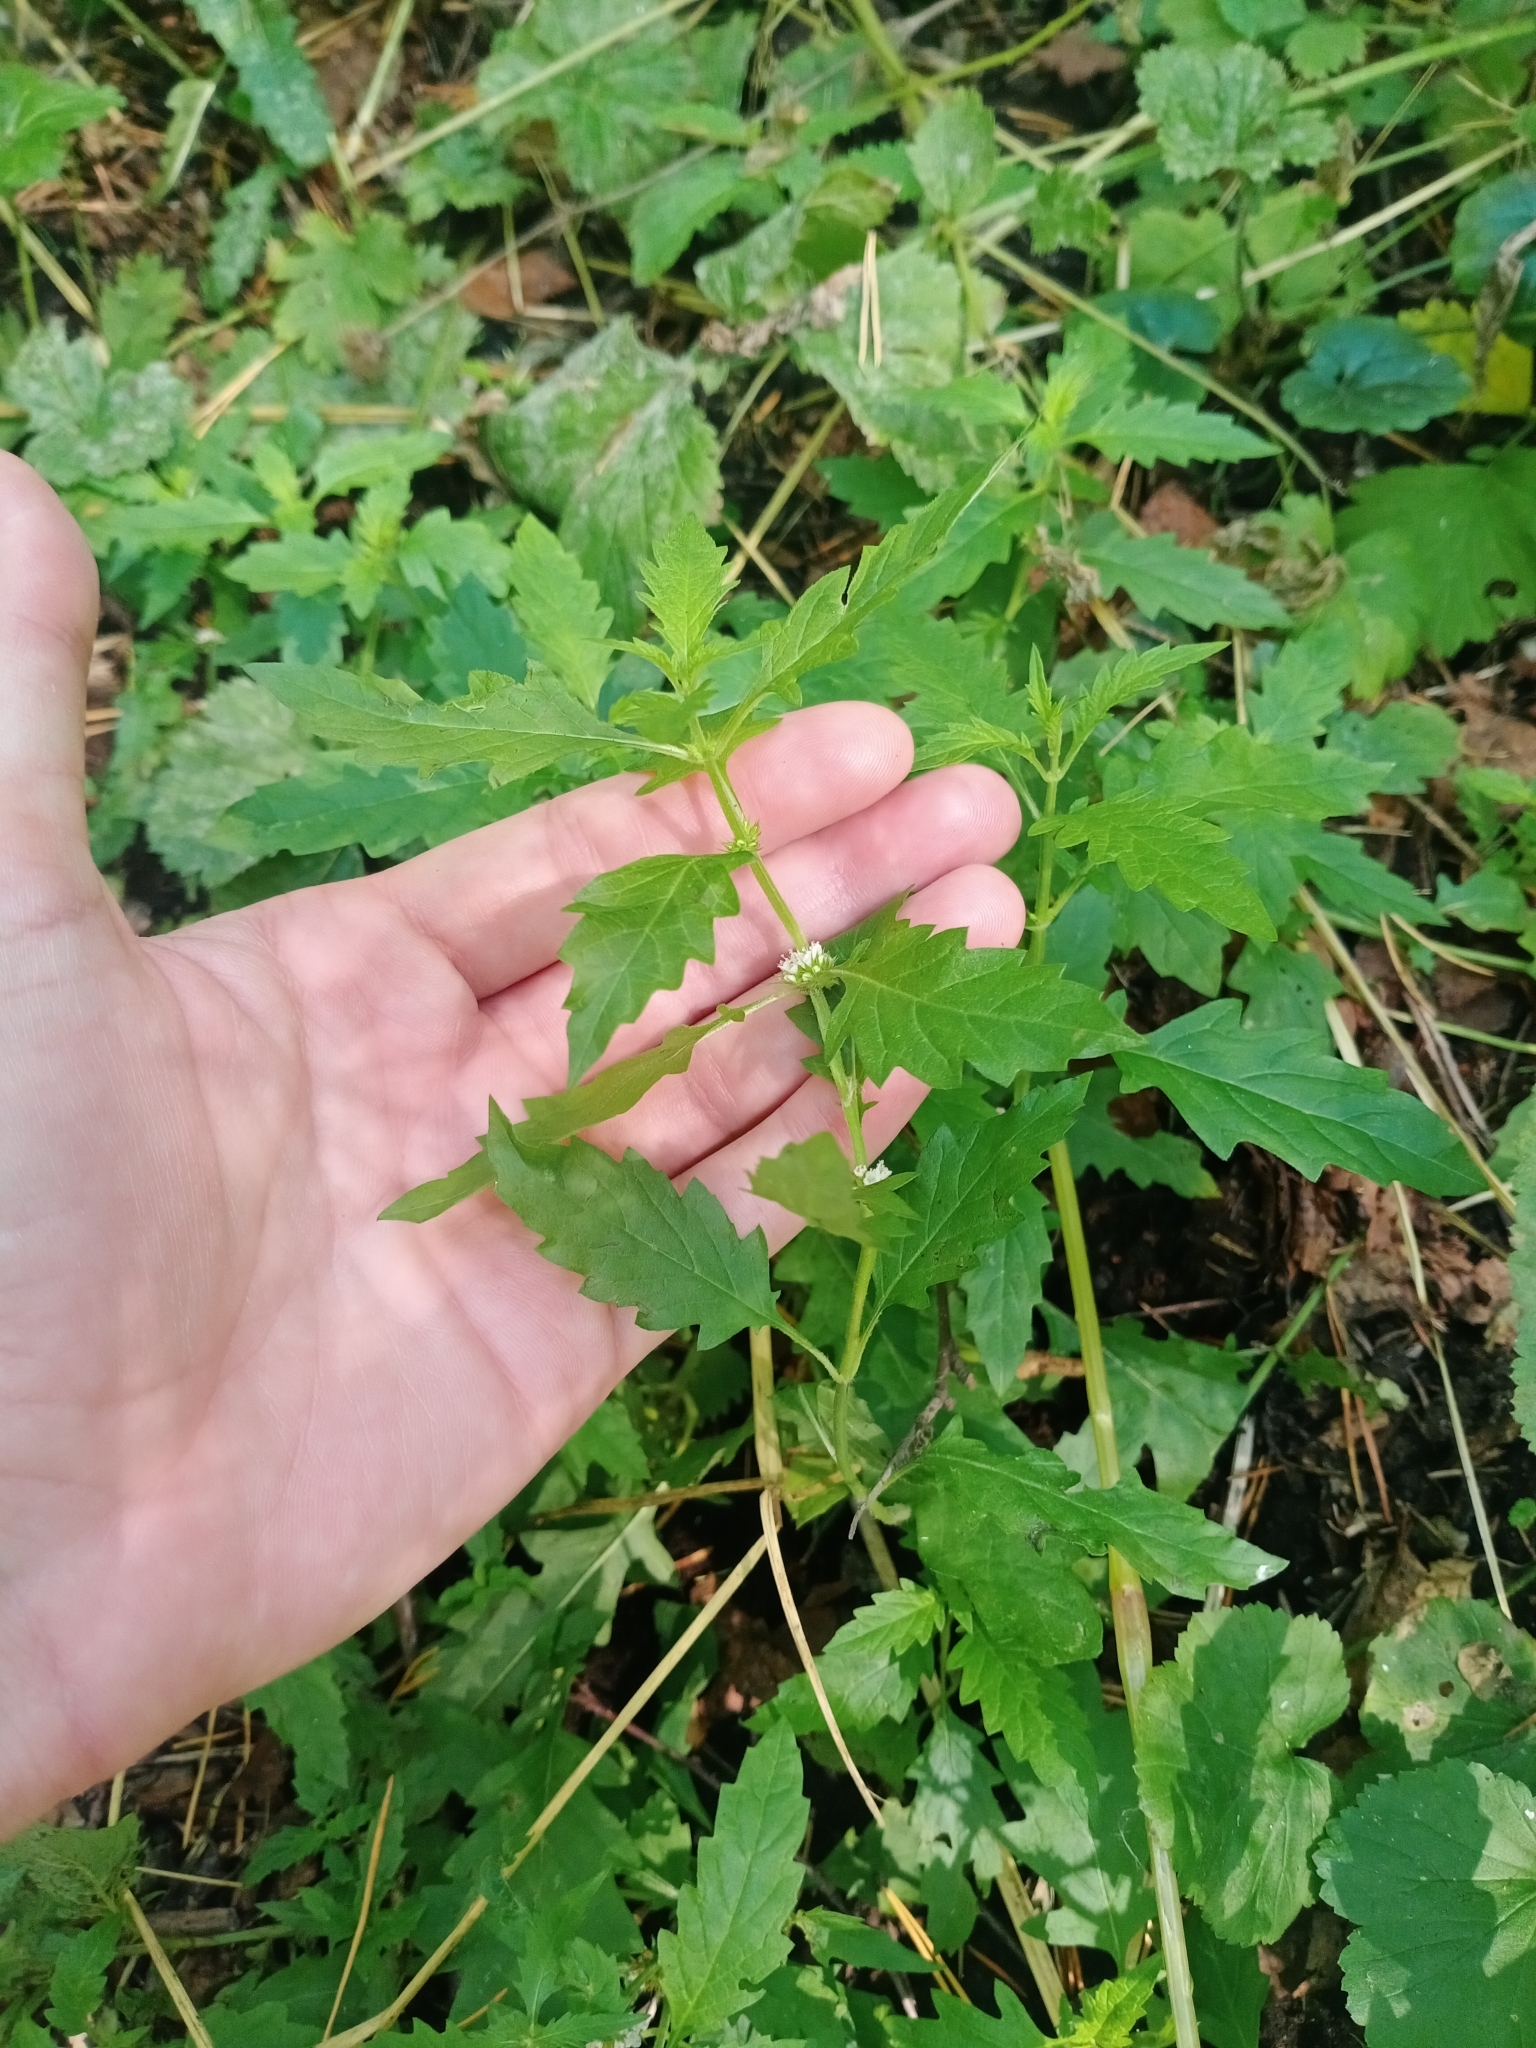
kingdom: Plantae
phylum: Tracheophyta
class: Magnoliopsida
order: Lamiales
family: Lamiaceae
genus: Lycopus
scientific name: Lycopus europaeus
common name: European bugleweed
